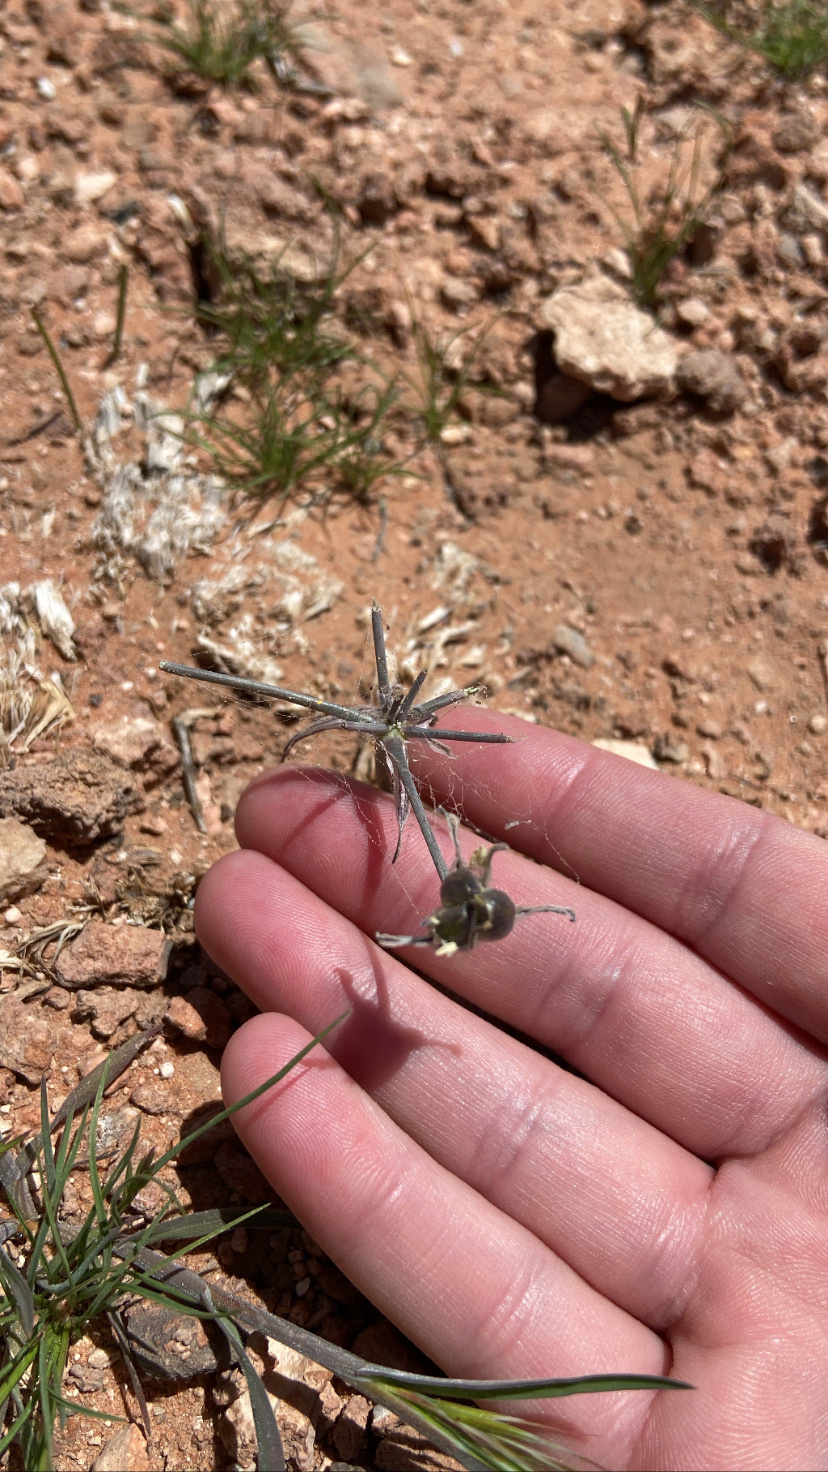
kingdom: Plantae
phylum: Tracheophyta
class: Liliopsida
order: Asparagales
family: Asparagaceae
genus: Androstephium
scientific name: Androstephium breviflorum
